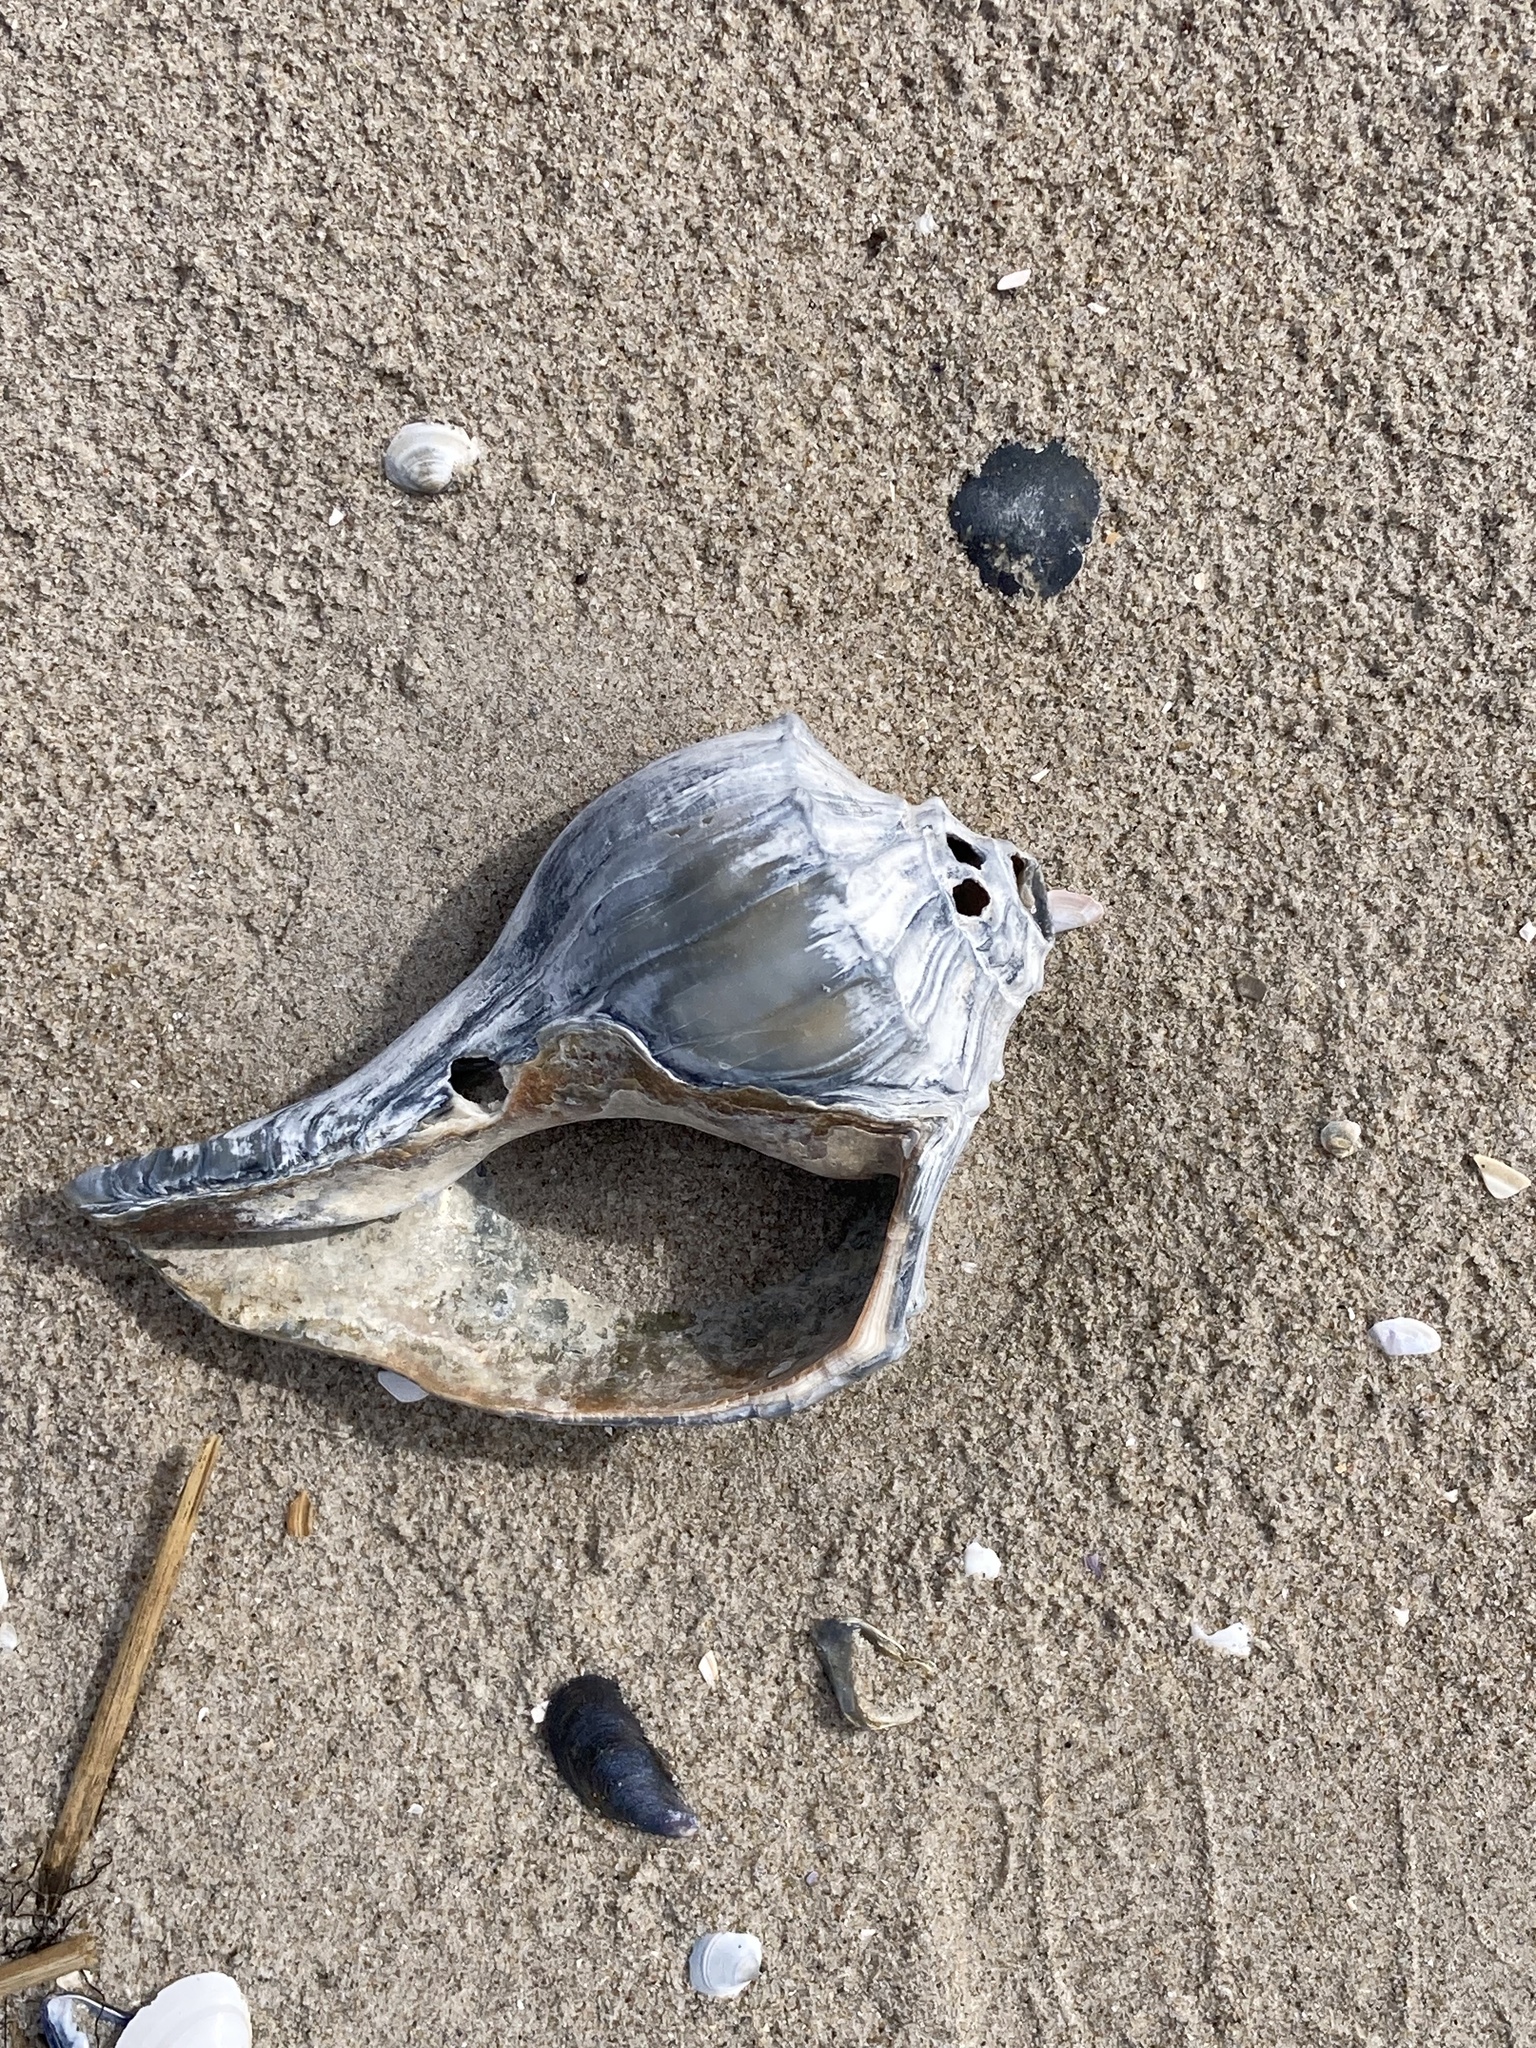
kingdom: Animalia
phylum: Mollusca
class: Gastropoda
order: Neogastropoda
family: Busyconidae
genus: Busycon
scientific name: Busycon carica
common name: Knobbed whelk
